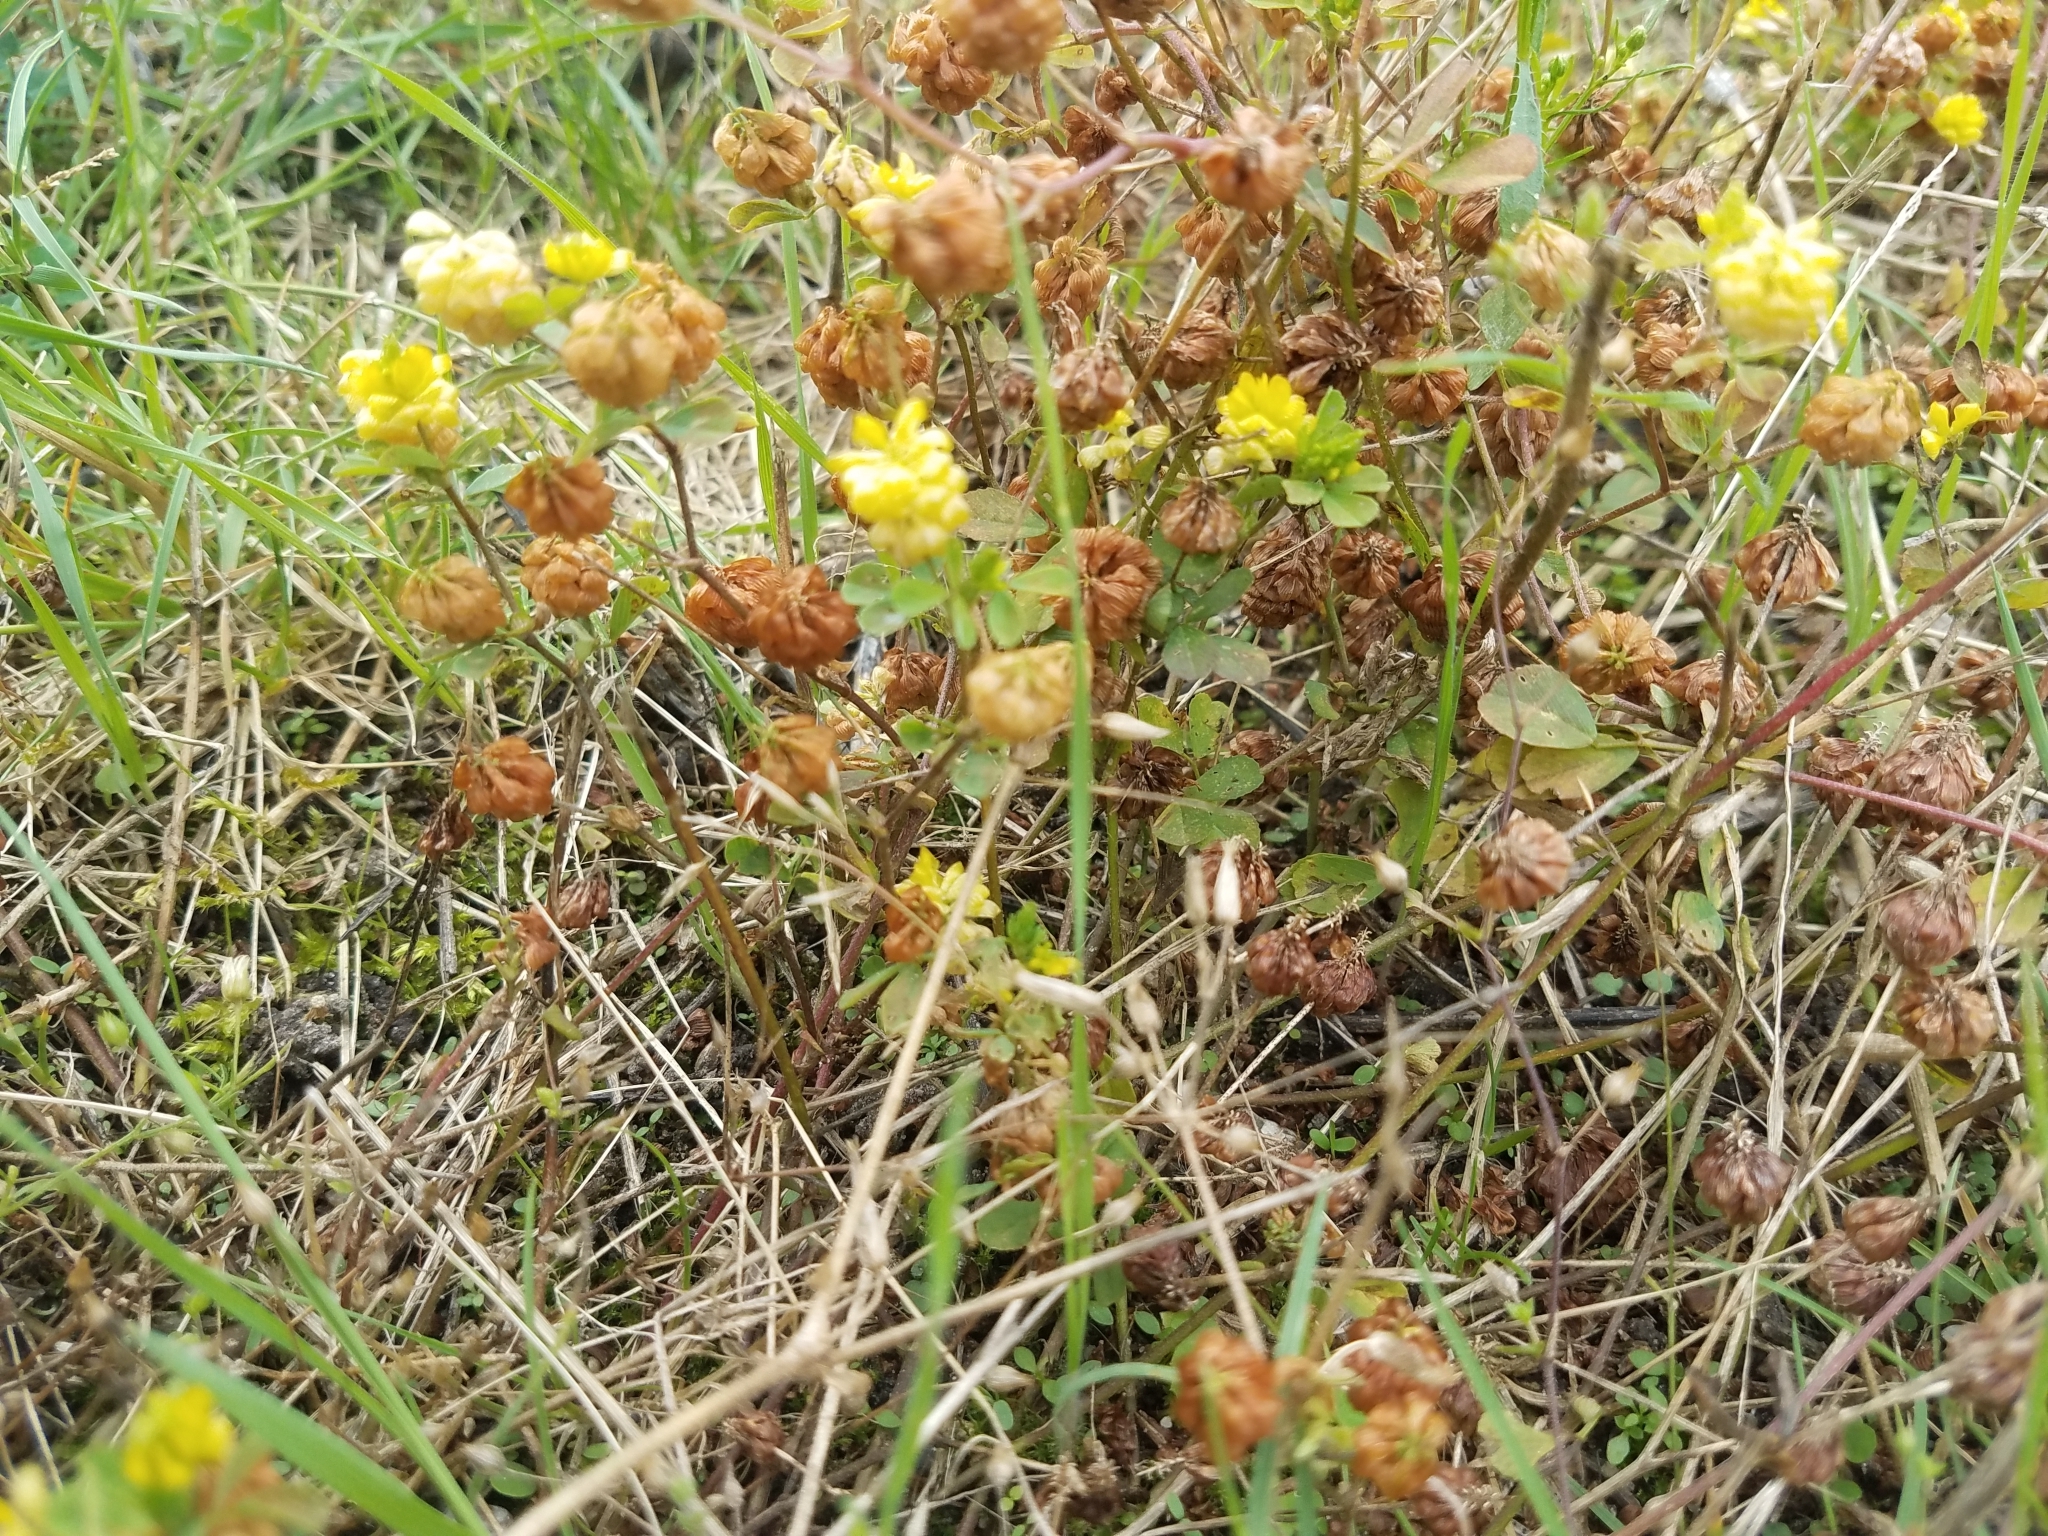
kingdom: Plantae
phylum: Tracheophyta
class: Magnoliopsida
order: Fabales
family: Fabaceae
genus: Trifolium
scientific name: Trifolium campestre
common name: Field clover
